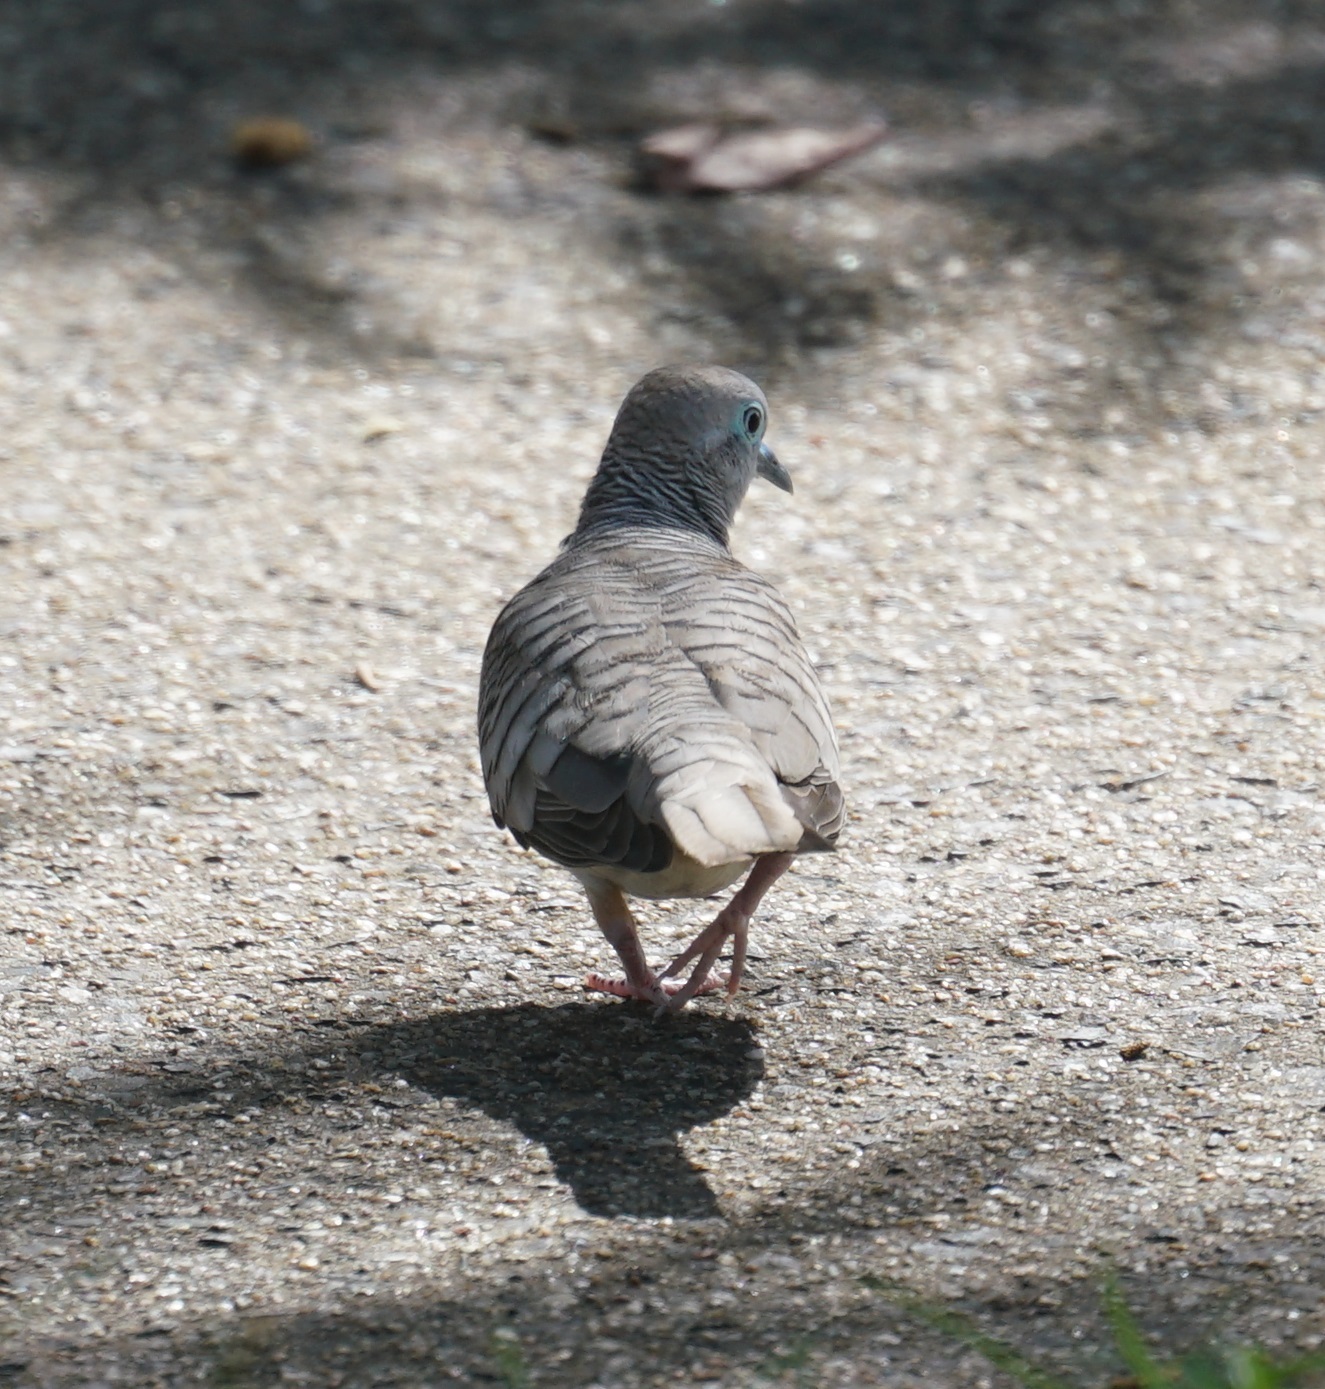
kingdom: Animalia
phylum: Chordata
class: Aves
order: Columbiformes
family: Columbidae
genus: Geopelia
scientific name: Geopelia placida
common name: Peaceful dove
